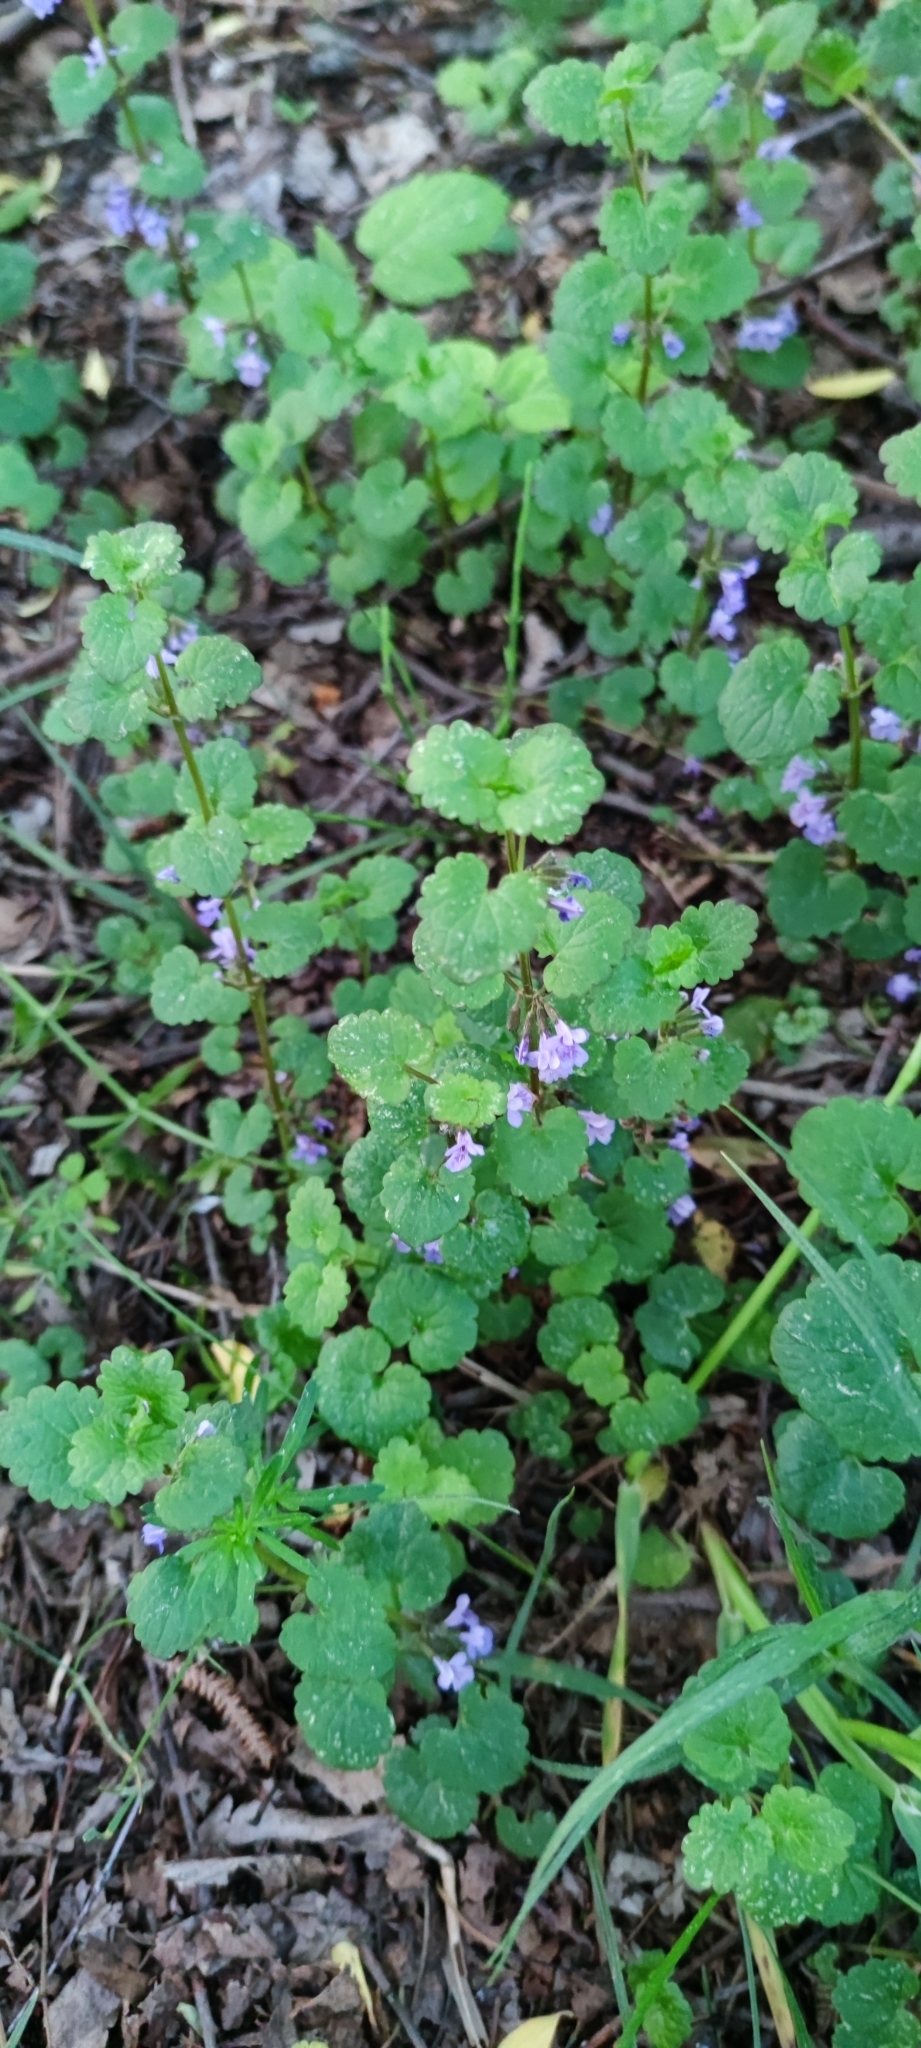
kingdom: Plantae
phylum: Tracheophyta
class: Magnoliopsida
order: Lamiales
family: Lamiaceae
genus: Glechoma
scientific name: Glechoma hederacea
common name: Ground ivy
